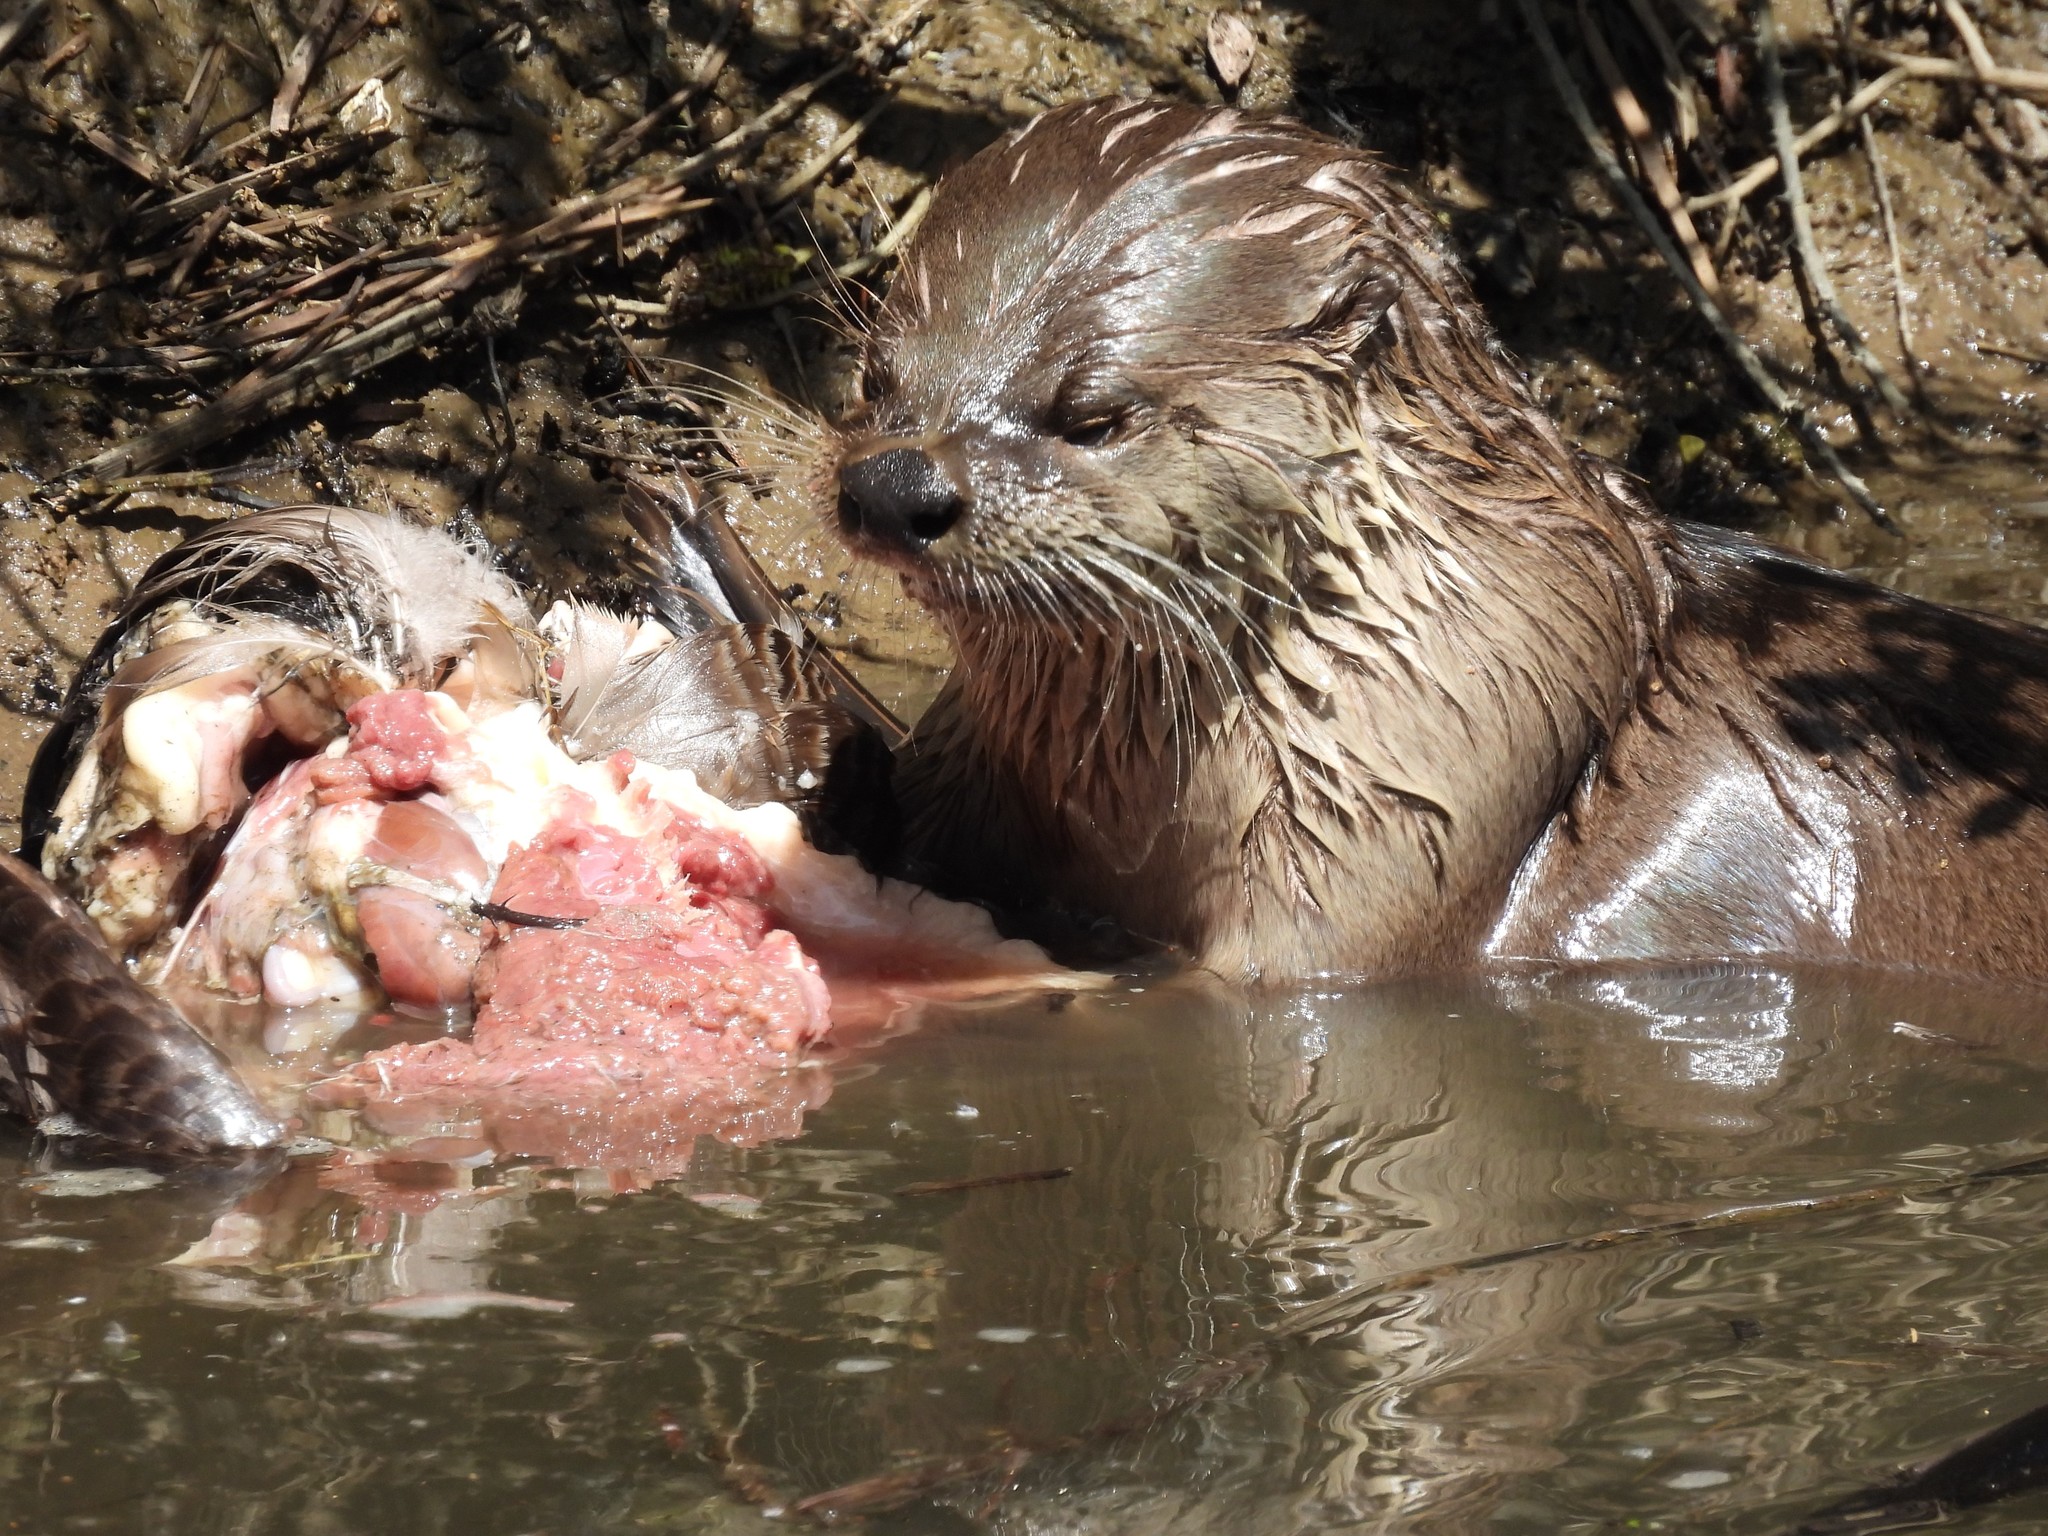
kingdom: Animalia
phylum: Chordata
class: Mammalia
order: Carnivora
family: Mustelidae
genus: Lontra
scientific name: Lontra canadensis
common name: North american river otter
